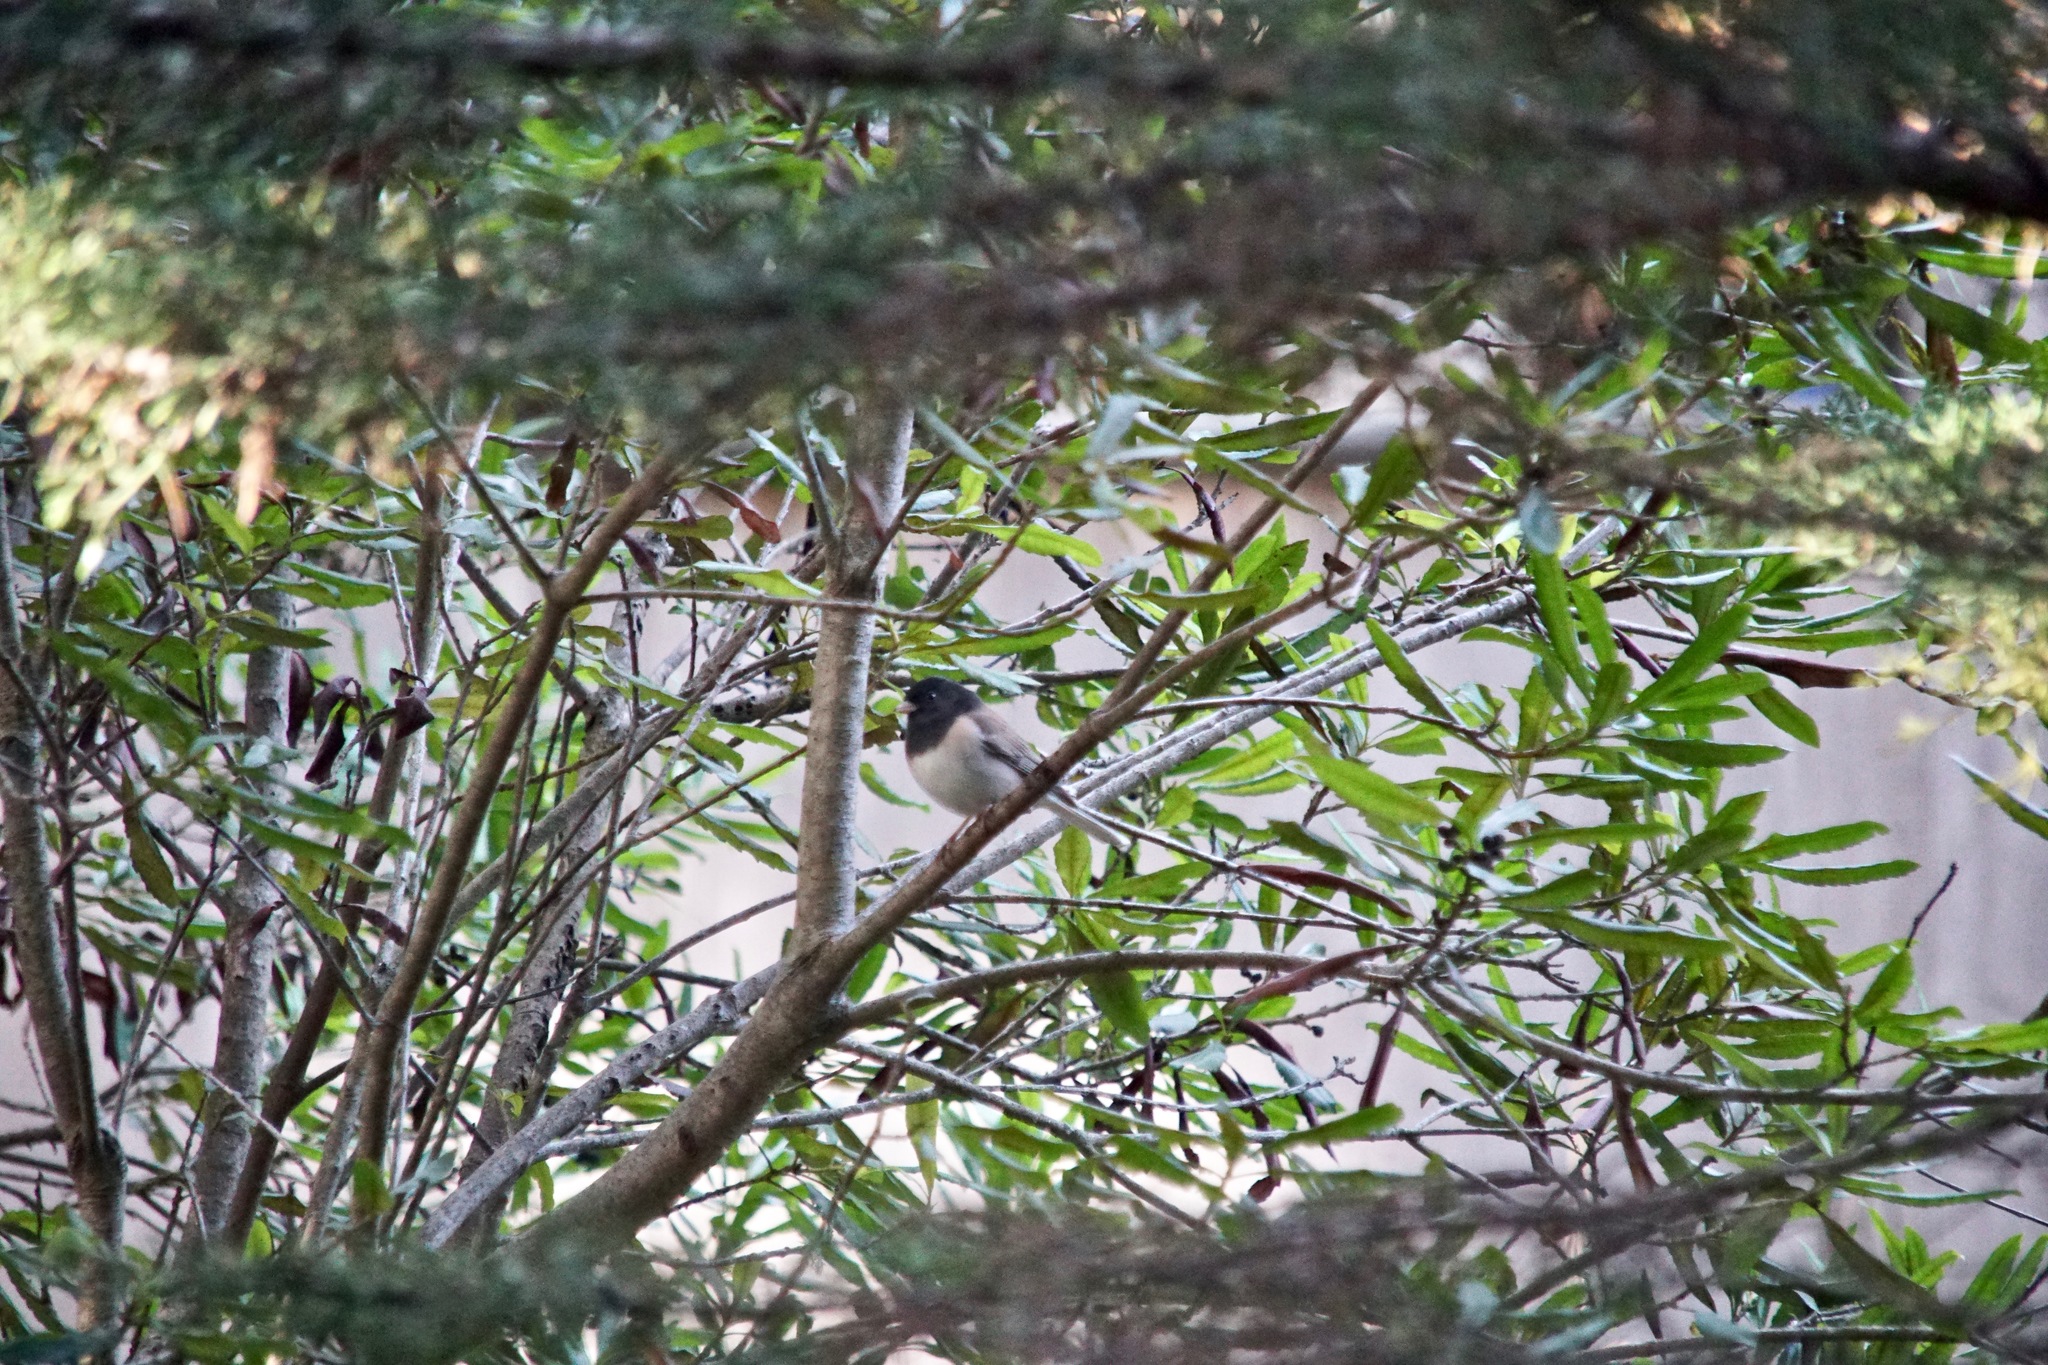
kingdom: Animalia
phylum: Chordata
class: Aves
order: Passeriformes
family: Passerellidae
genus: Junco
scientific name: Junco hyemalis
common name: Dark-eyed junco
